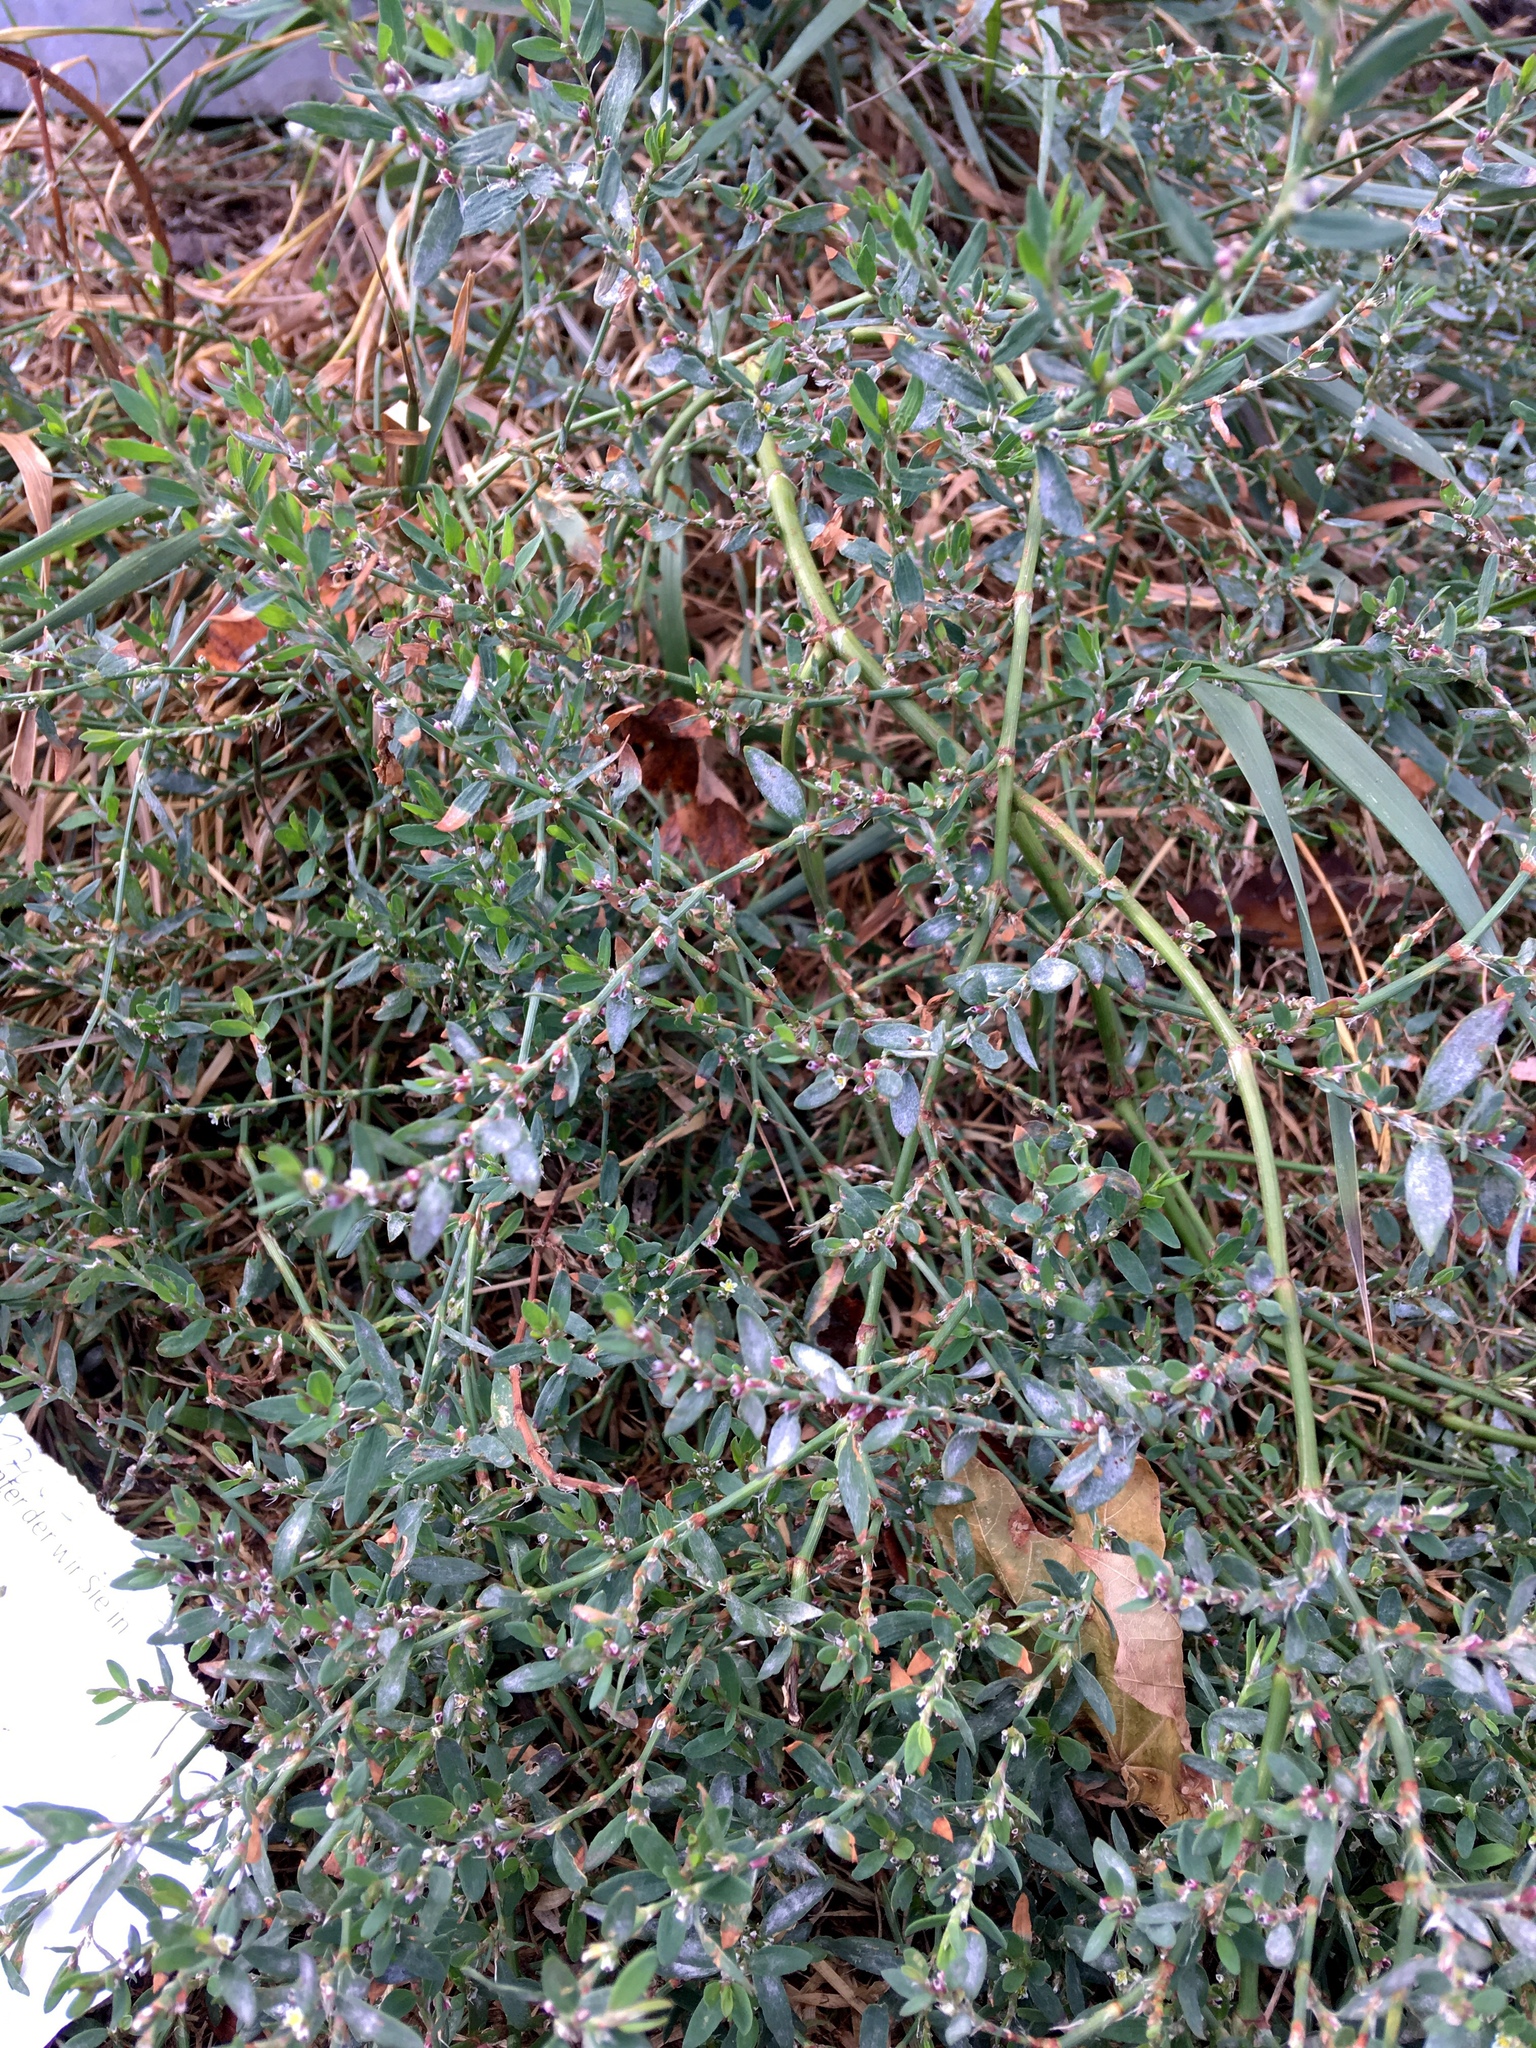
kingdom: Plantae
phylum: Tracheophyta
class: Magnoliopsida
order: Caryophyllales
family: Polygonaceae
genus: Polygonum
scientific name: Polygonum aviculare
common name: Prostrate knotweed
